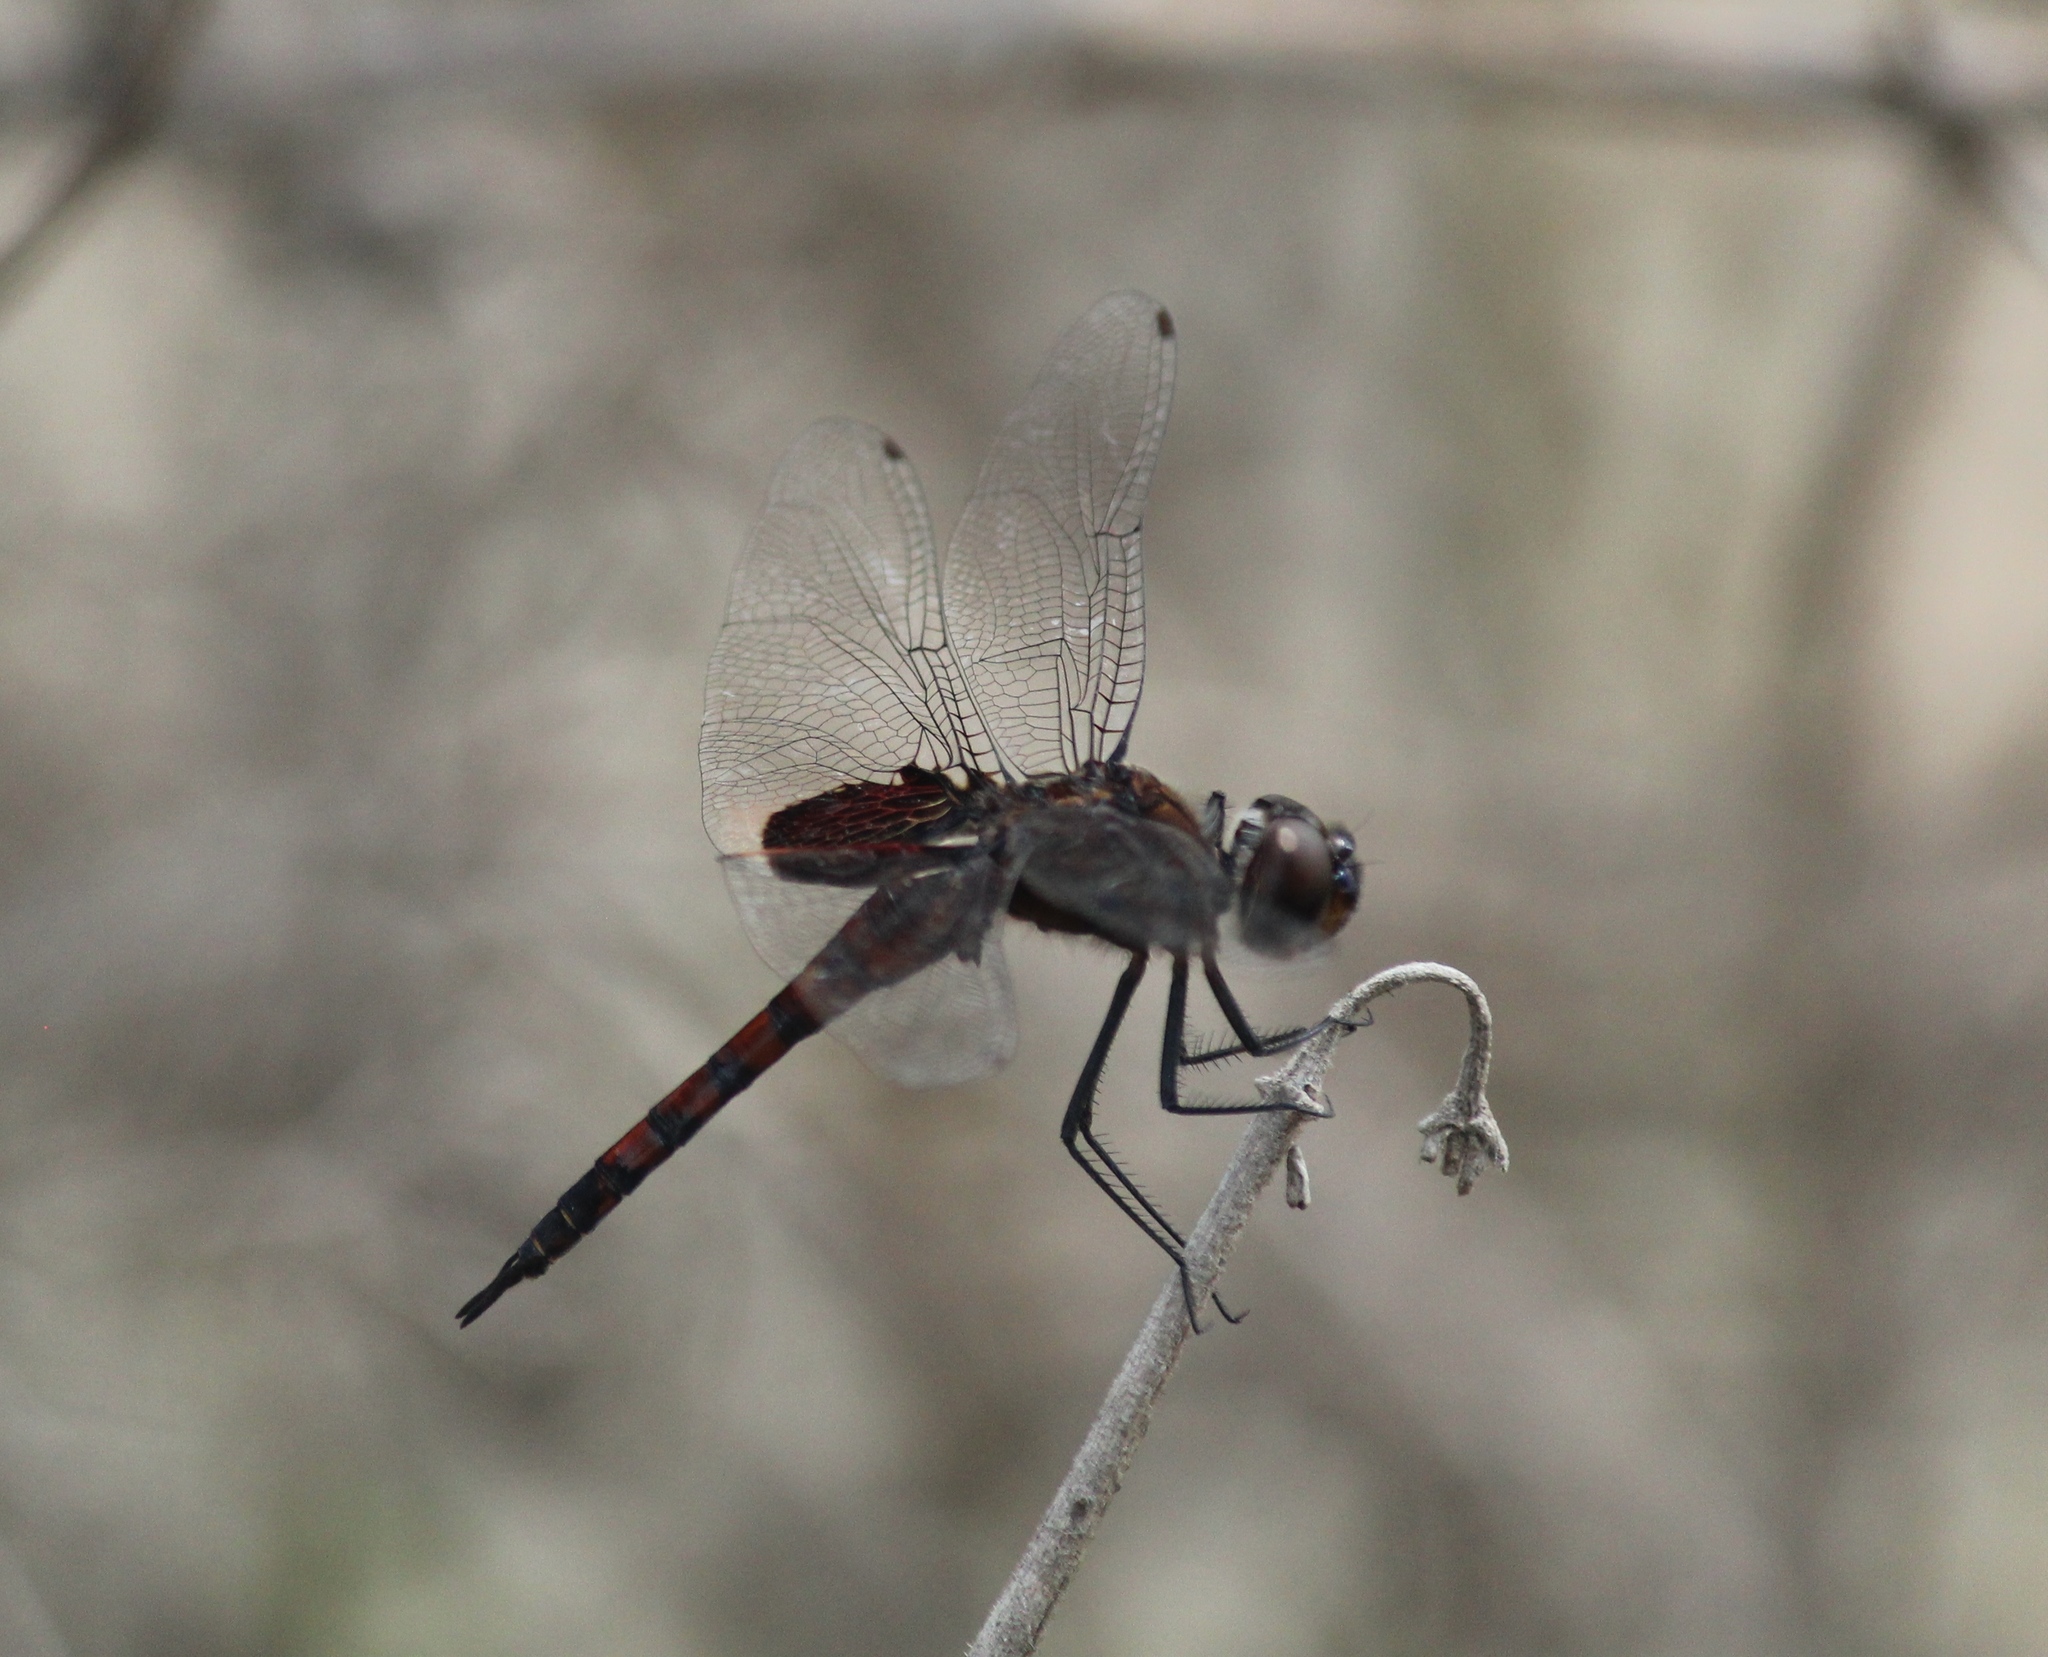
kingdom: Animalia
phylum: Arthropoda
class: Insecta
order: Odonata
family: Libellulidae
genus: Tramea
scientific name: Tramea limbata
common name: Ferruginous glider
